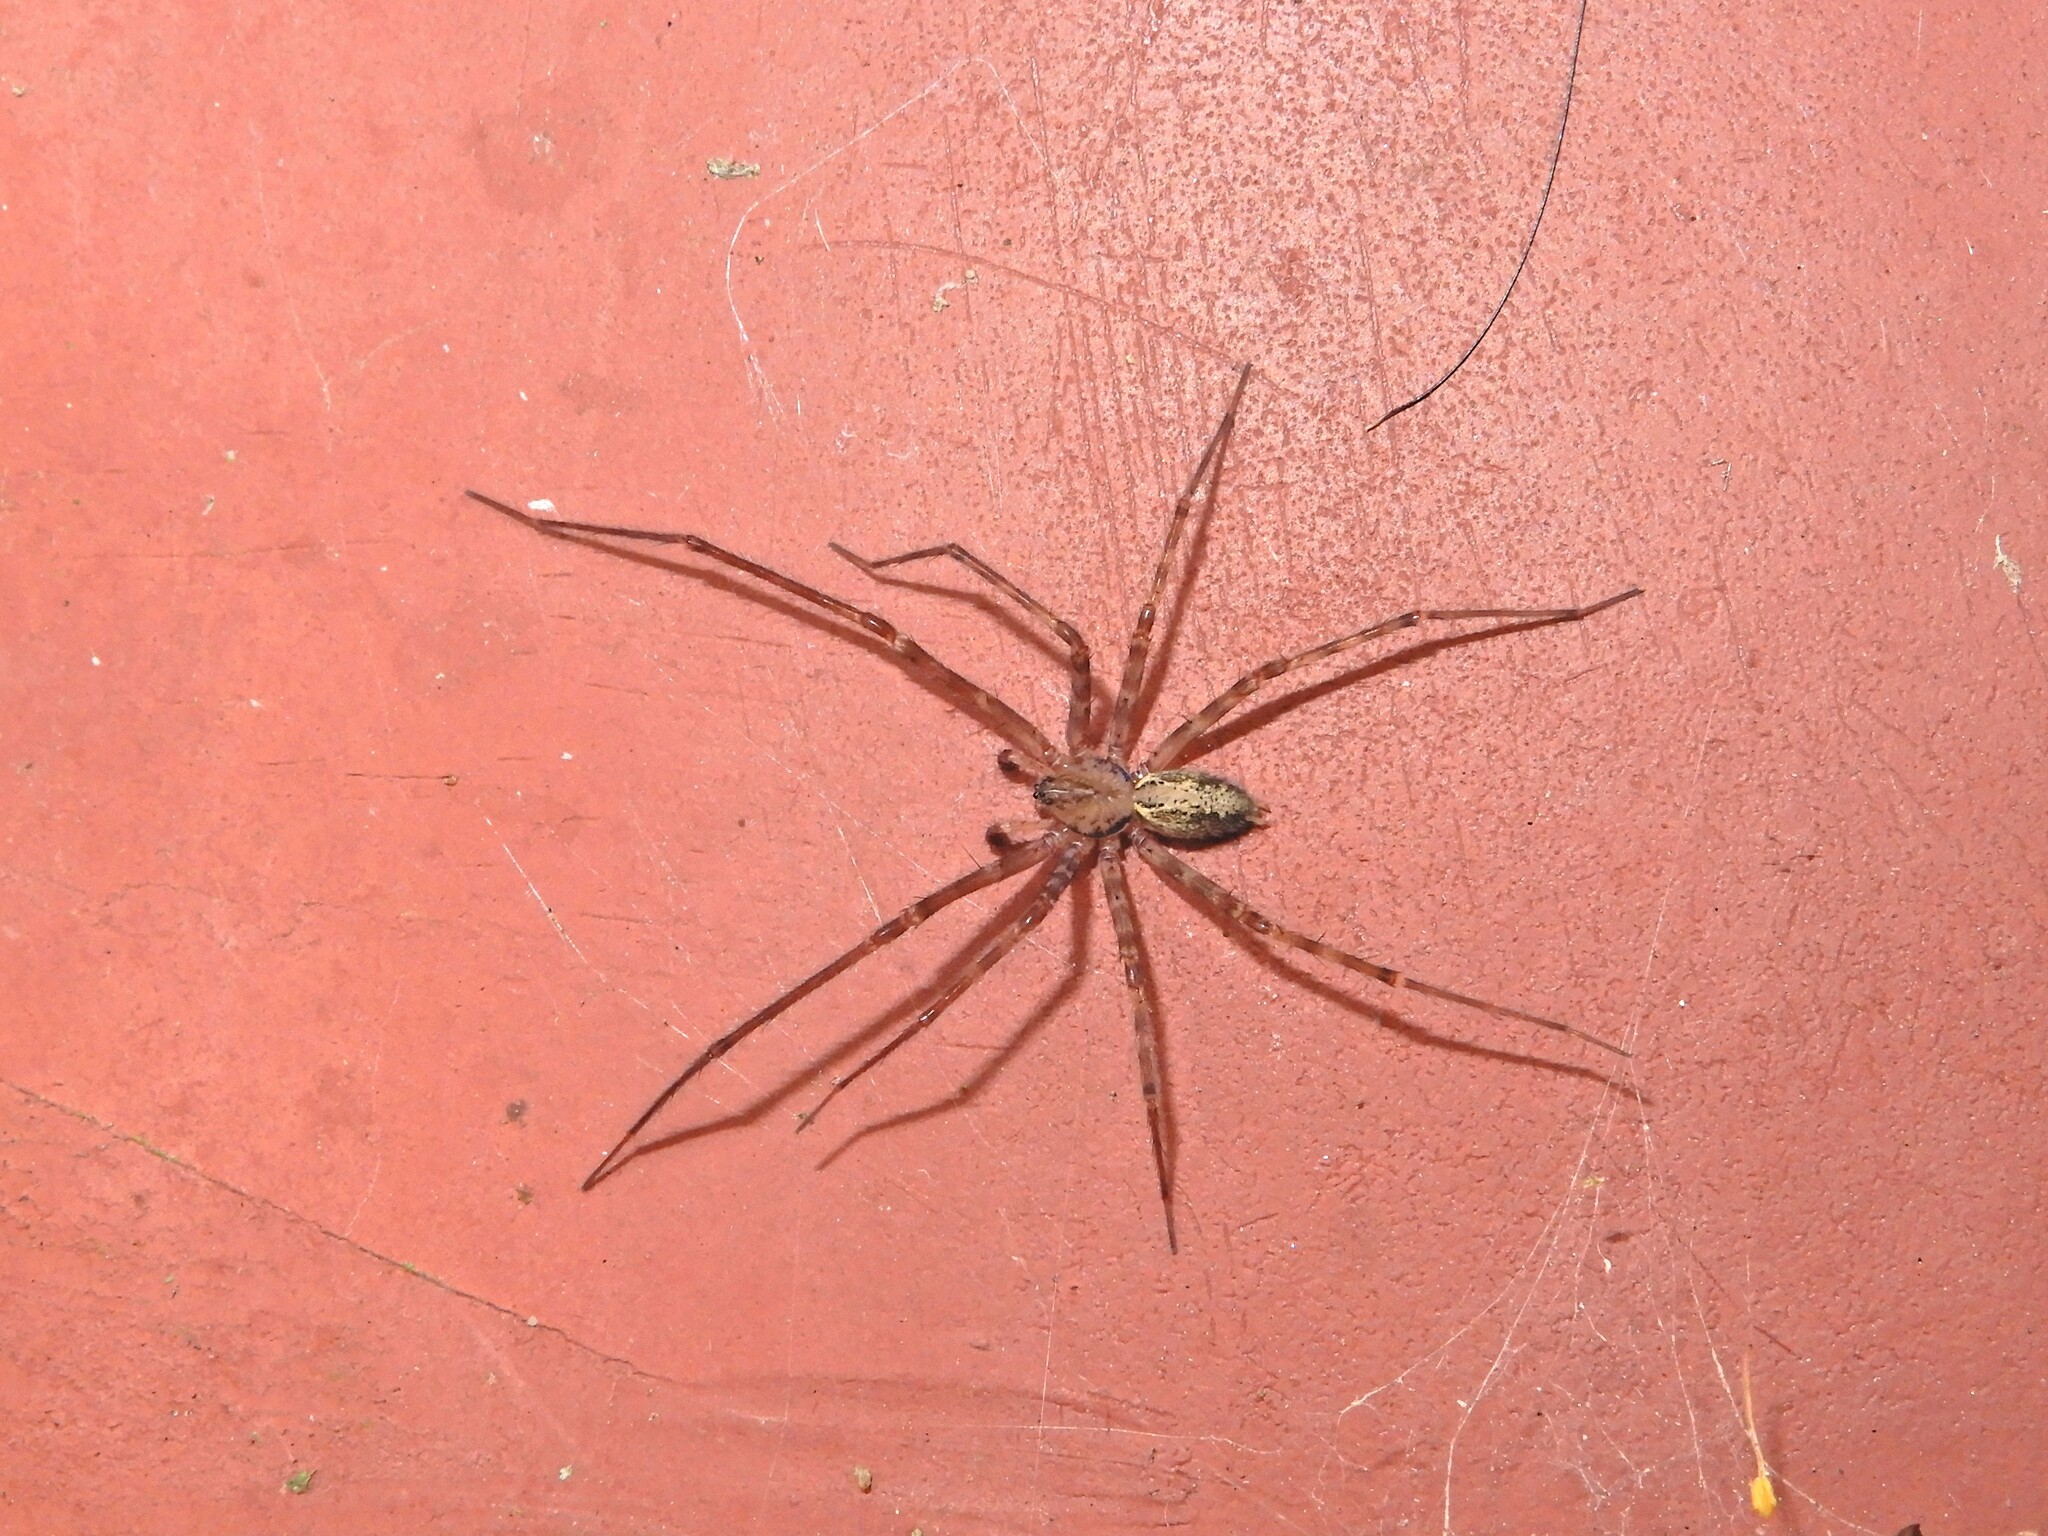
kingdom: Animalia
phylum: Arthropoda
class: Arachnida
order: Araneae
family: Stiphidiidae
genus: Stiphidion
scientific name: Stiphidion facetum
